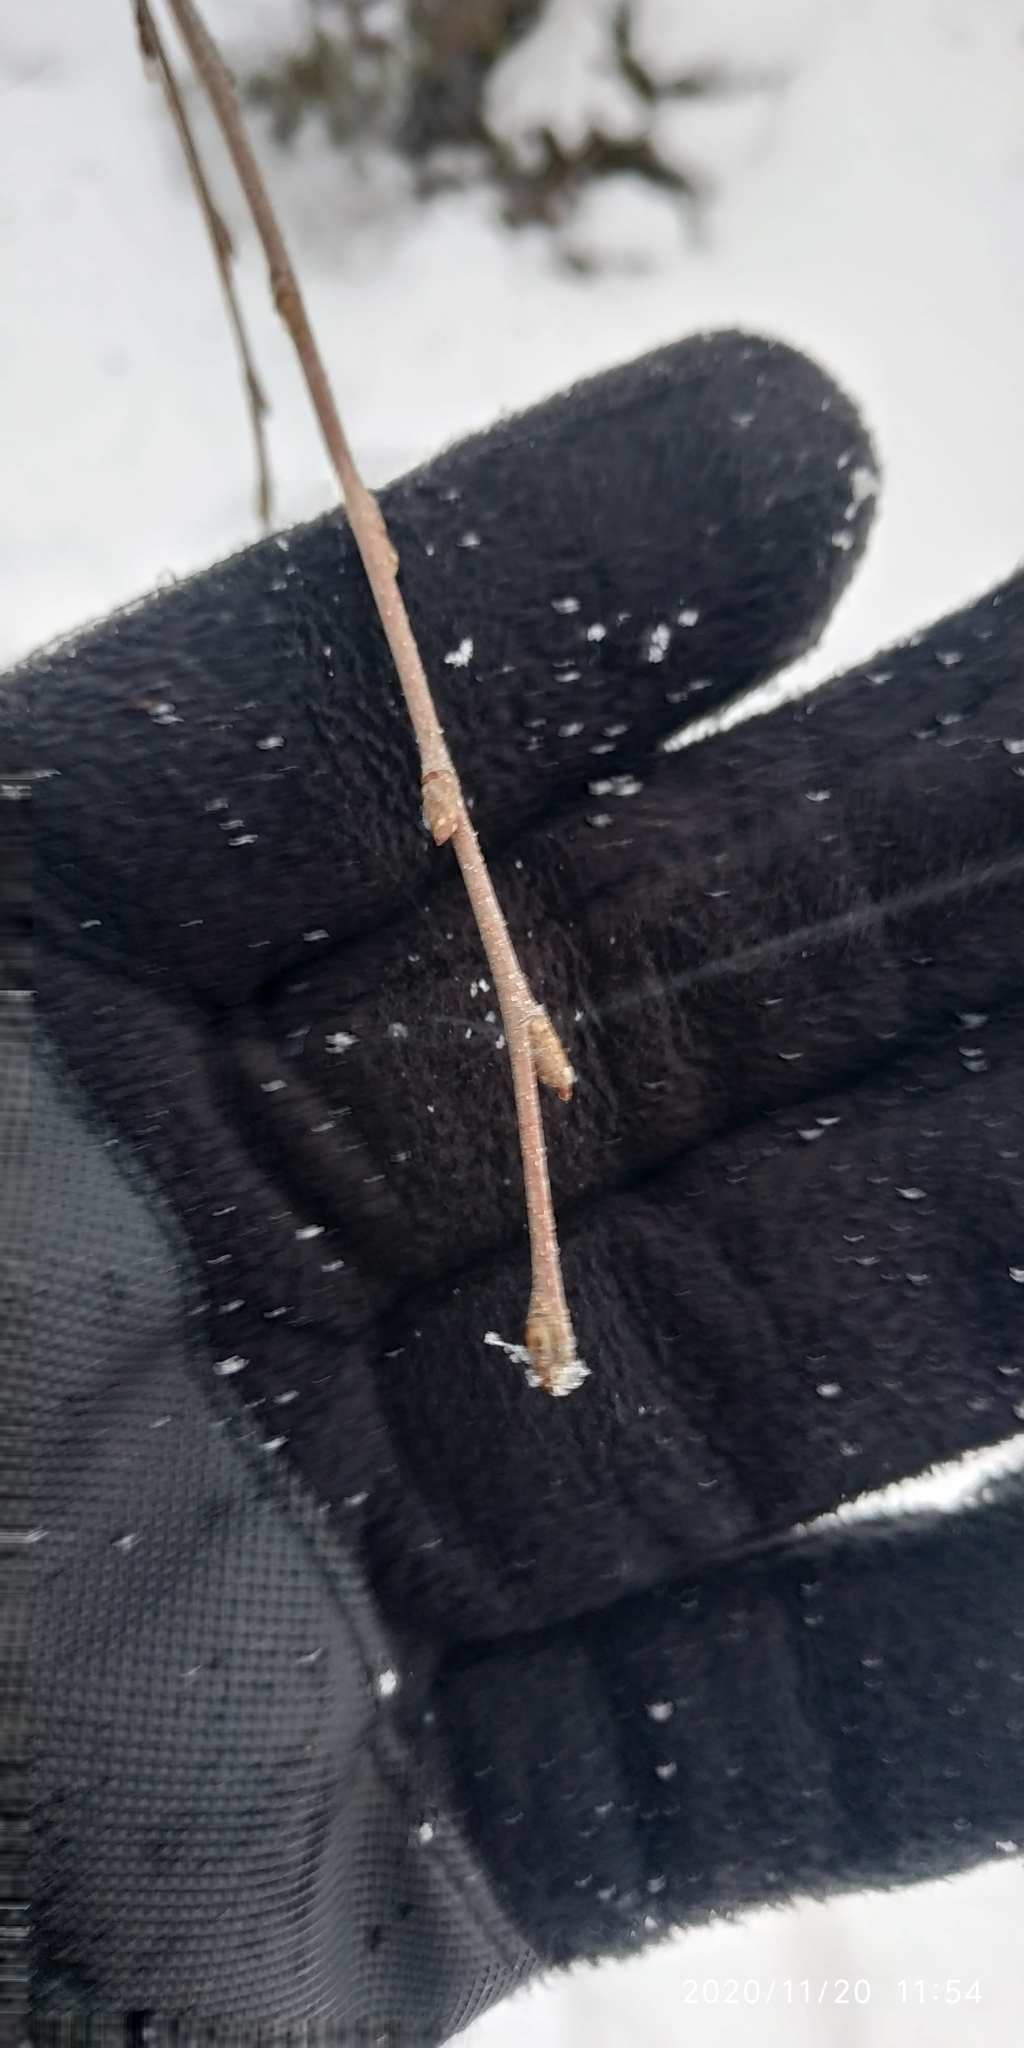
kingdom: Plantae
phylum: Tracheophyta
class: Magnoliopsida
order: Fagales
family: Betulaceae
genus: Betula
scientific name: Betula pubescens
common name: Downy birch
